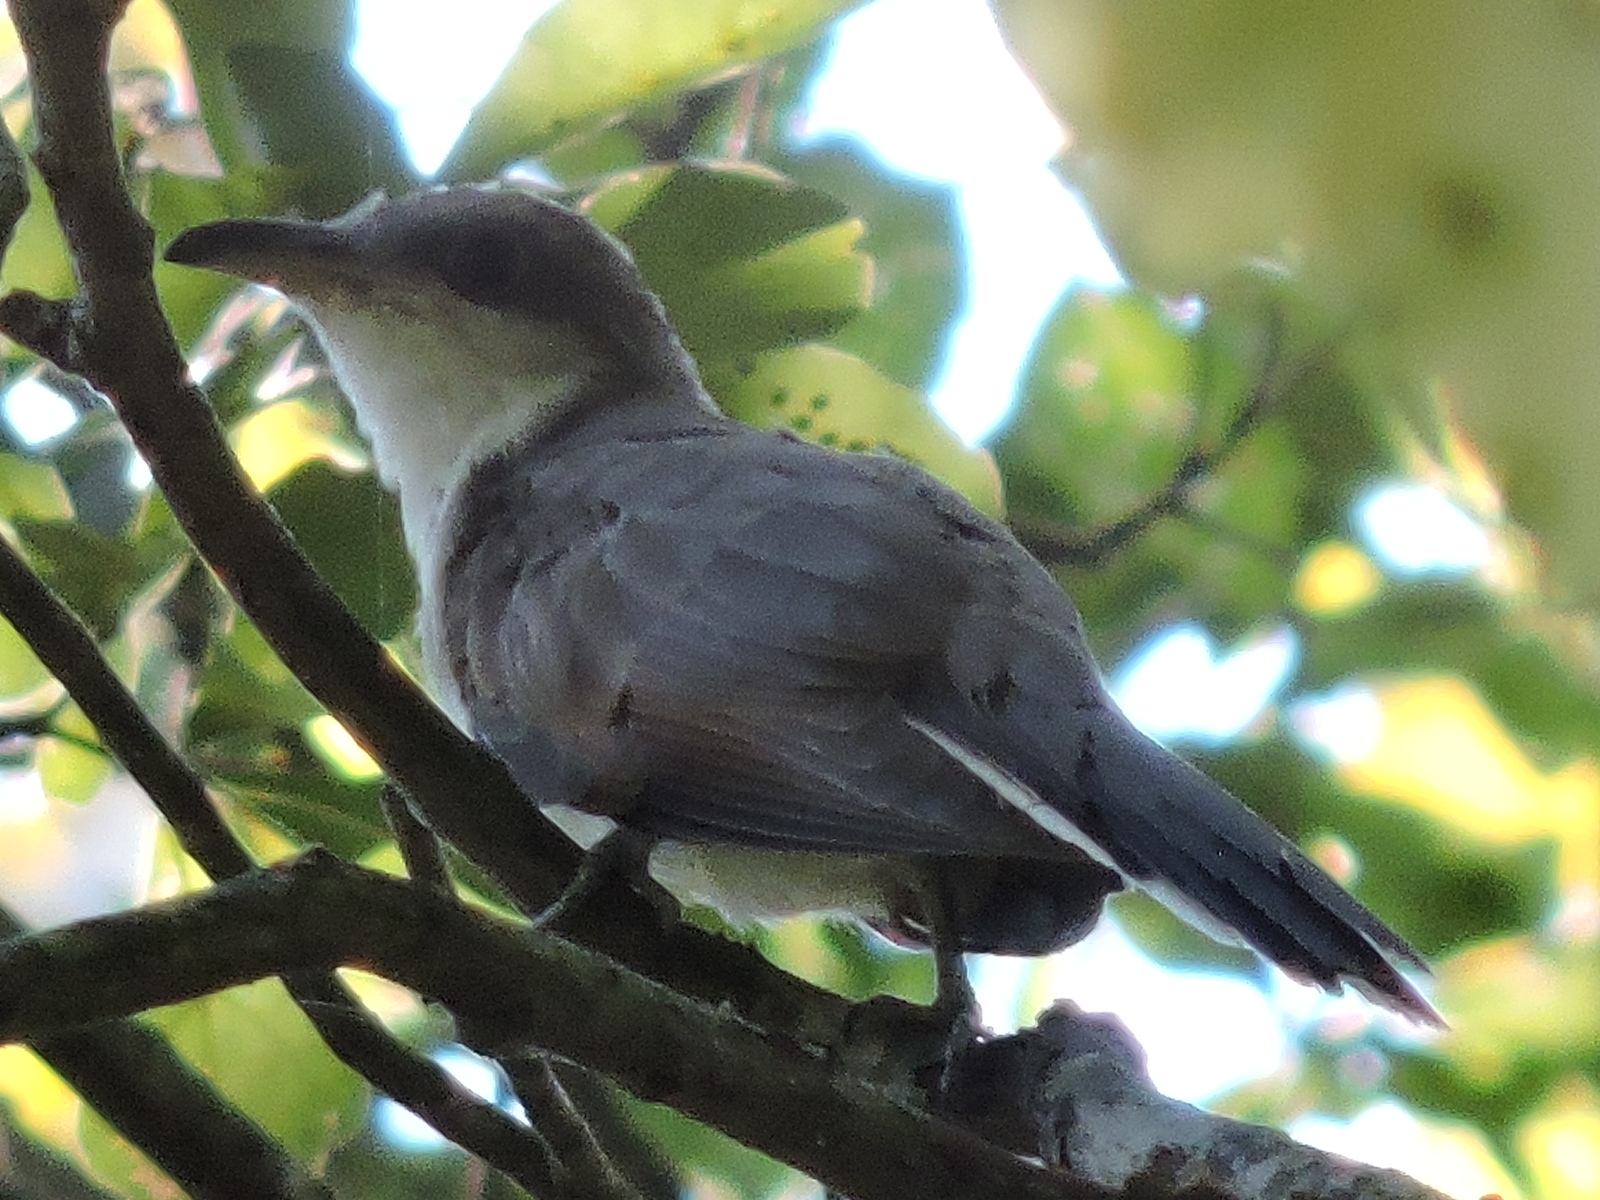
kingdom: Animalia
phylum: Chordata
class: Aves
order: Cuculiformes
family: Cuculidae
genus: Coccyzus
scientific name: Coccyzus americanus
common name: Yellow-billed cuckoo
